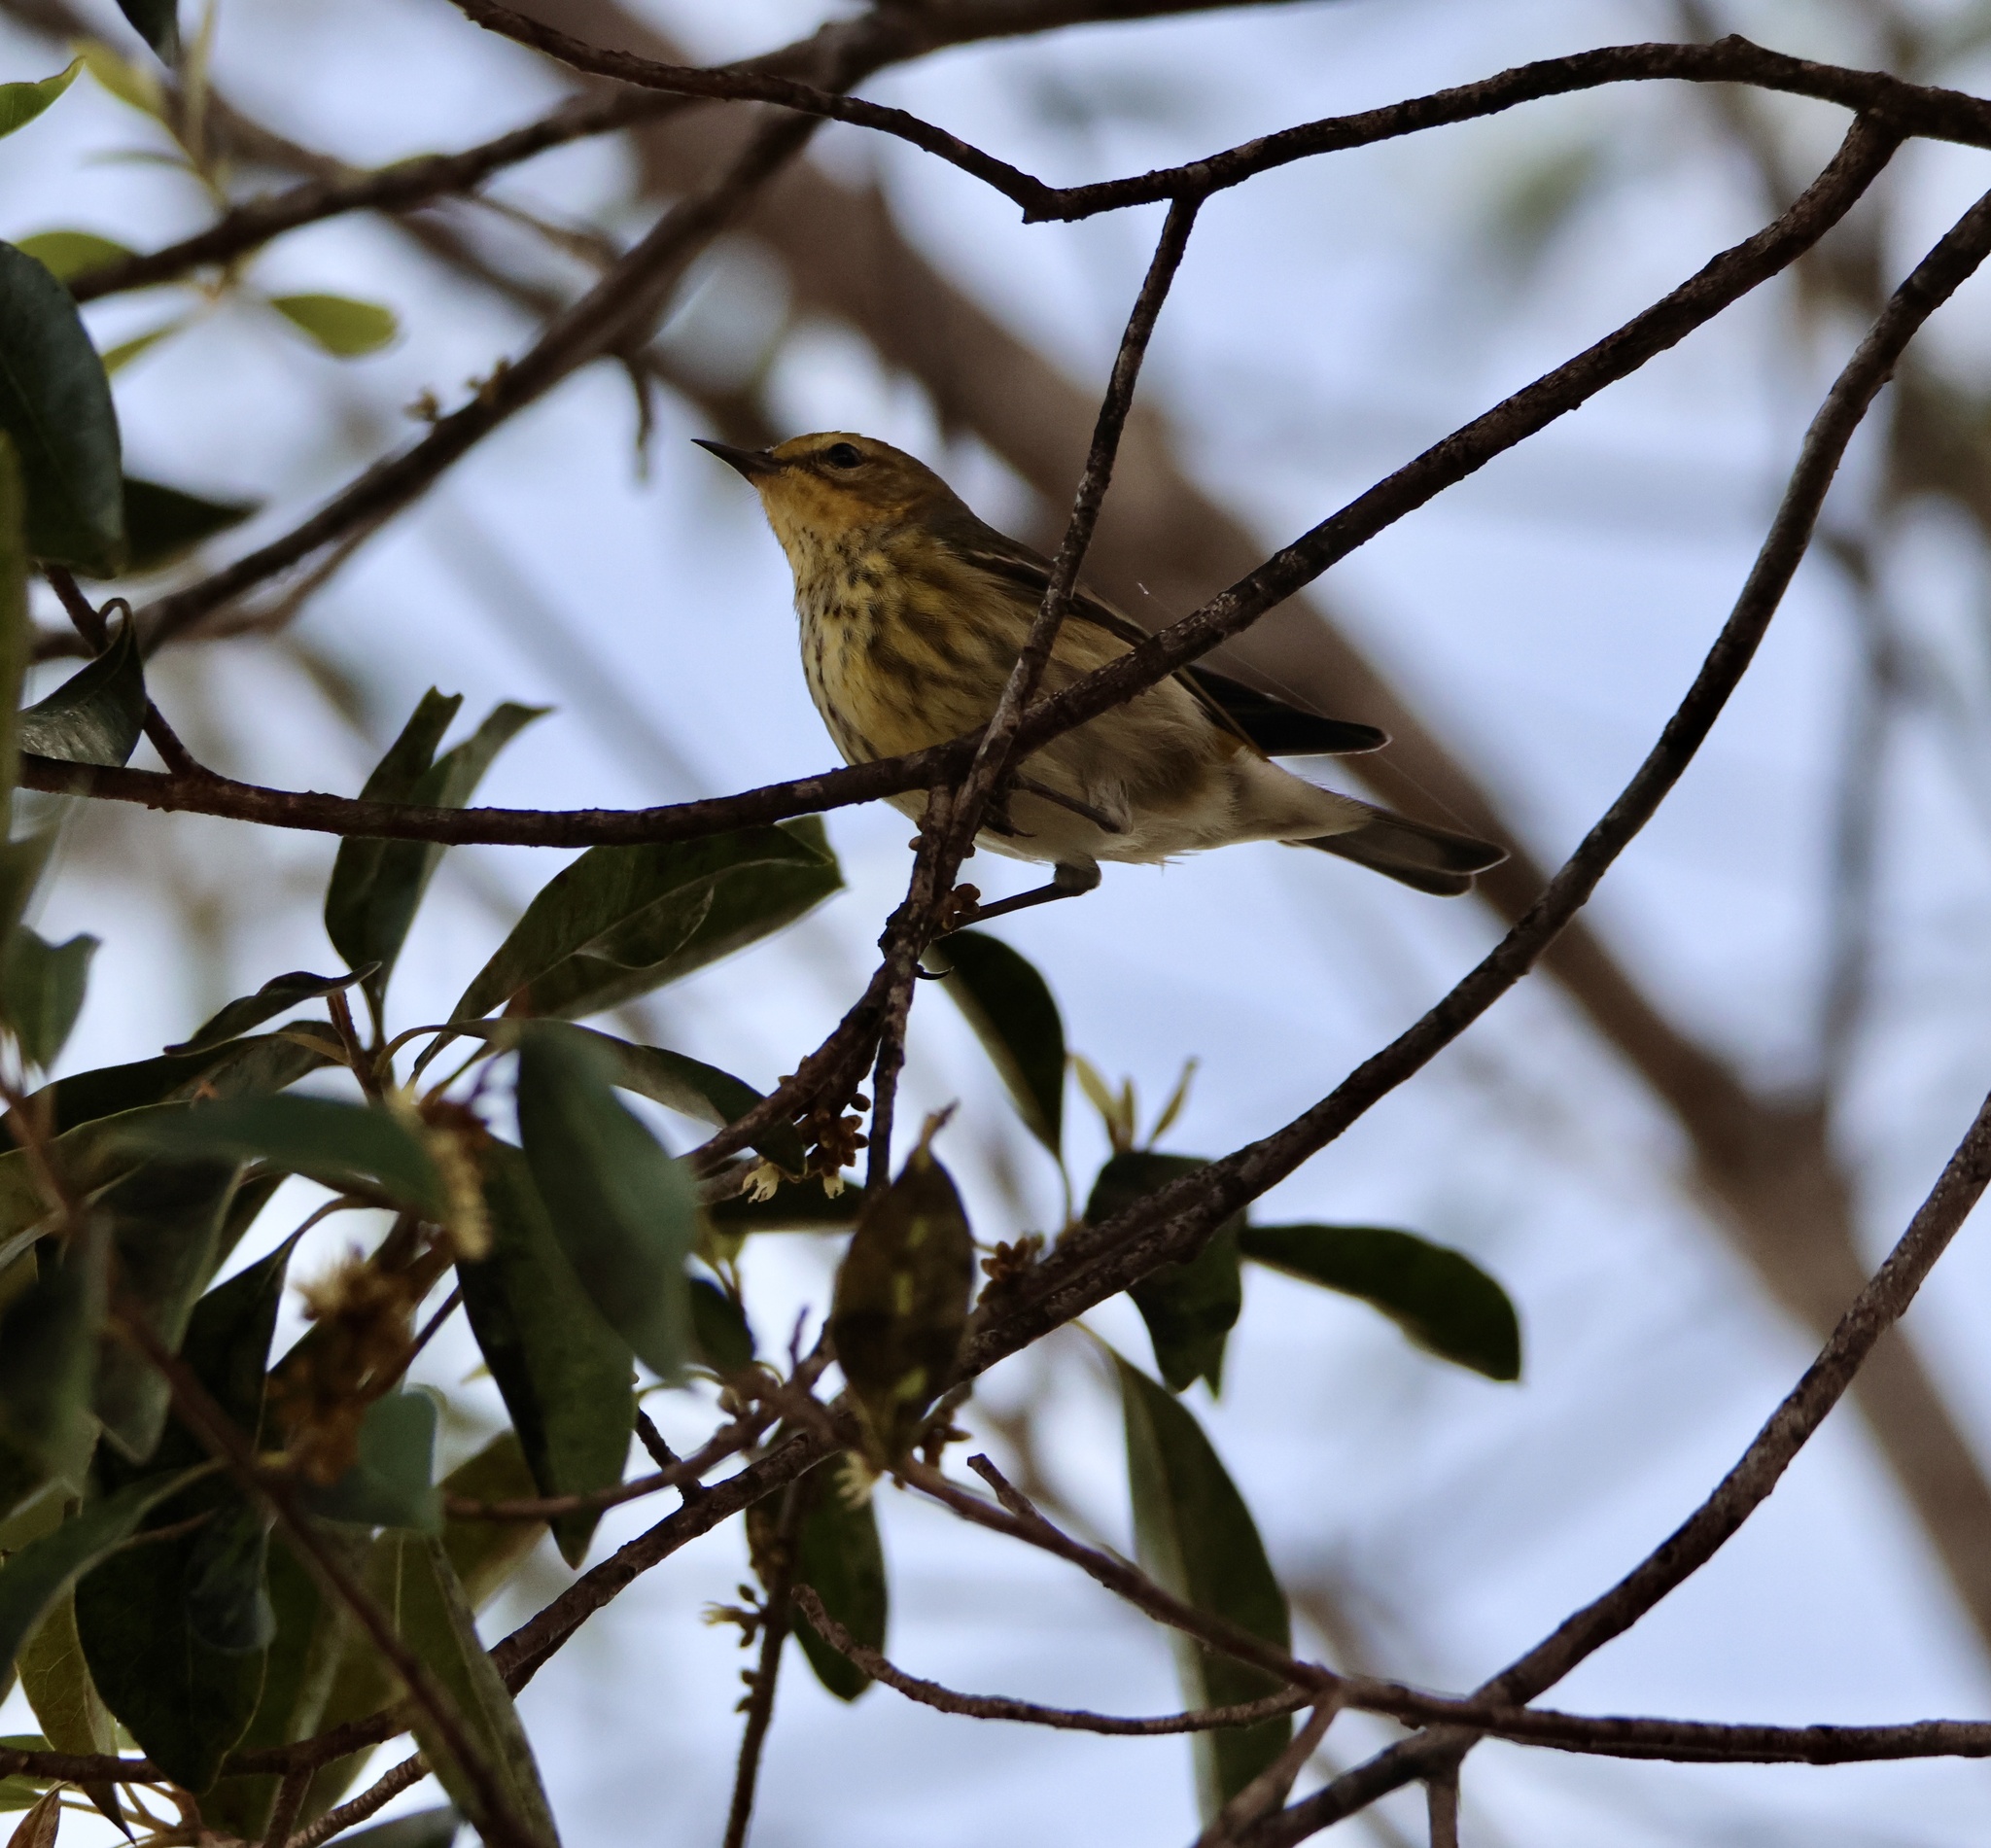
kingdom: Animalia
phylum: Chordata
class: Aves
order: Passeriformes
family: Parulidae
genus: Setophaga
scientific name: Setophaga tigrina
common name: Cape may warbler
